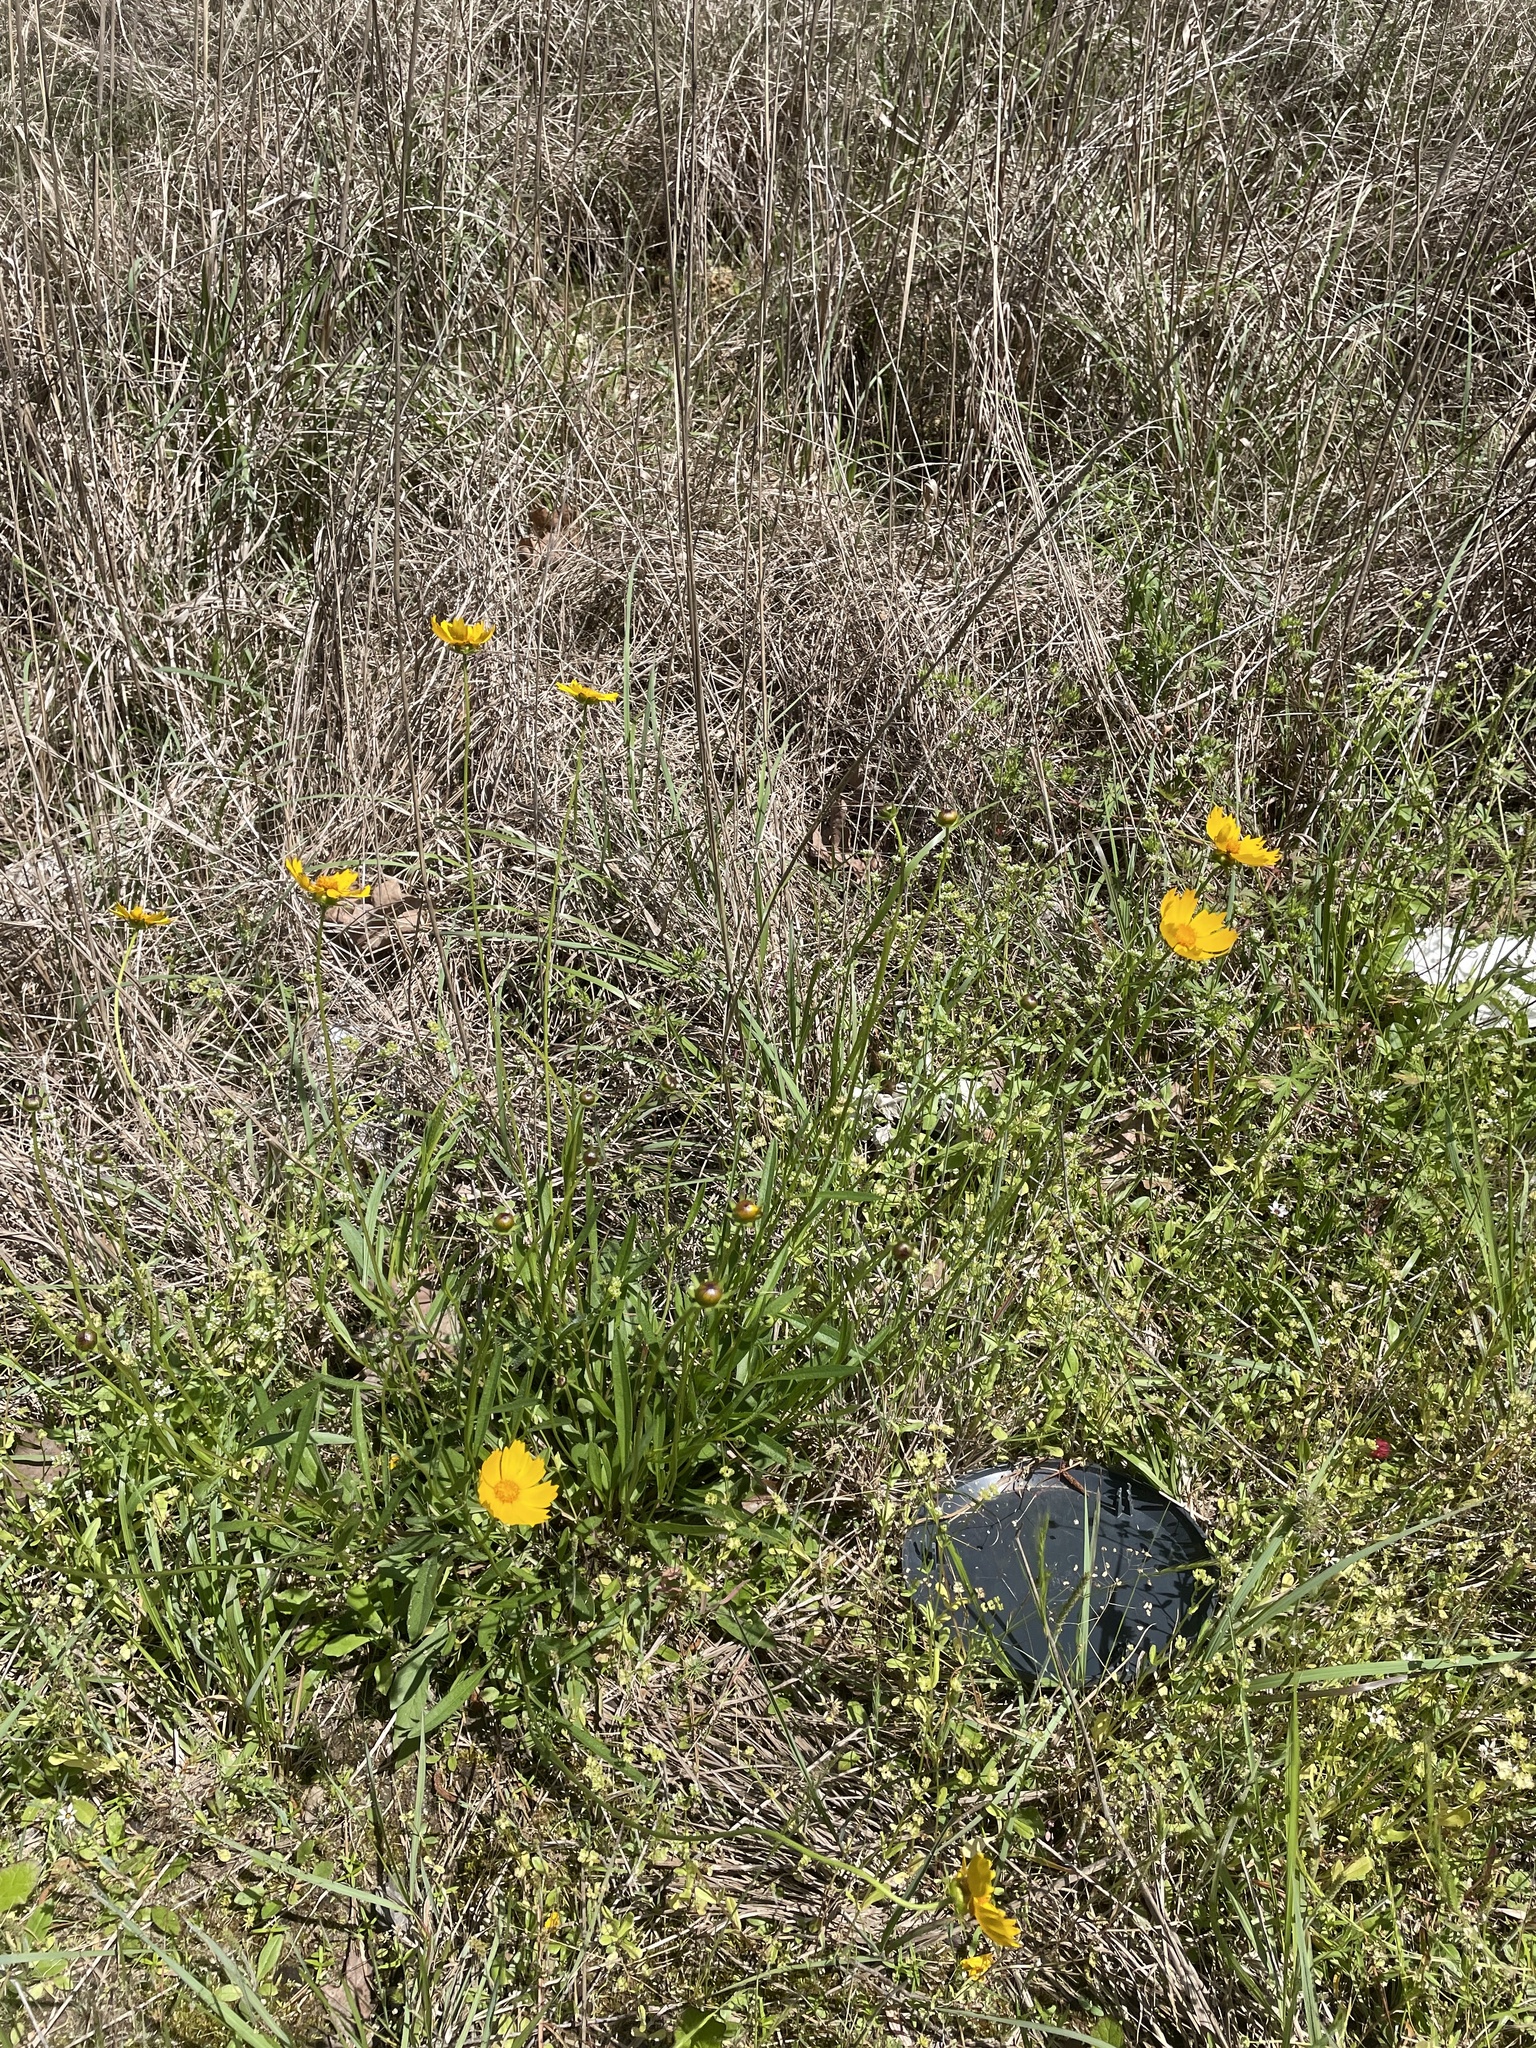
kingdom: Plantae
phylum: Tracheophyta
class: Magnoliopsida
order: Asterales
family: Asteraceae
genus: Coreopsis
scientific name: Coreopsis lanceolata
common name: Garden coreopsis
